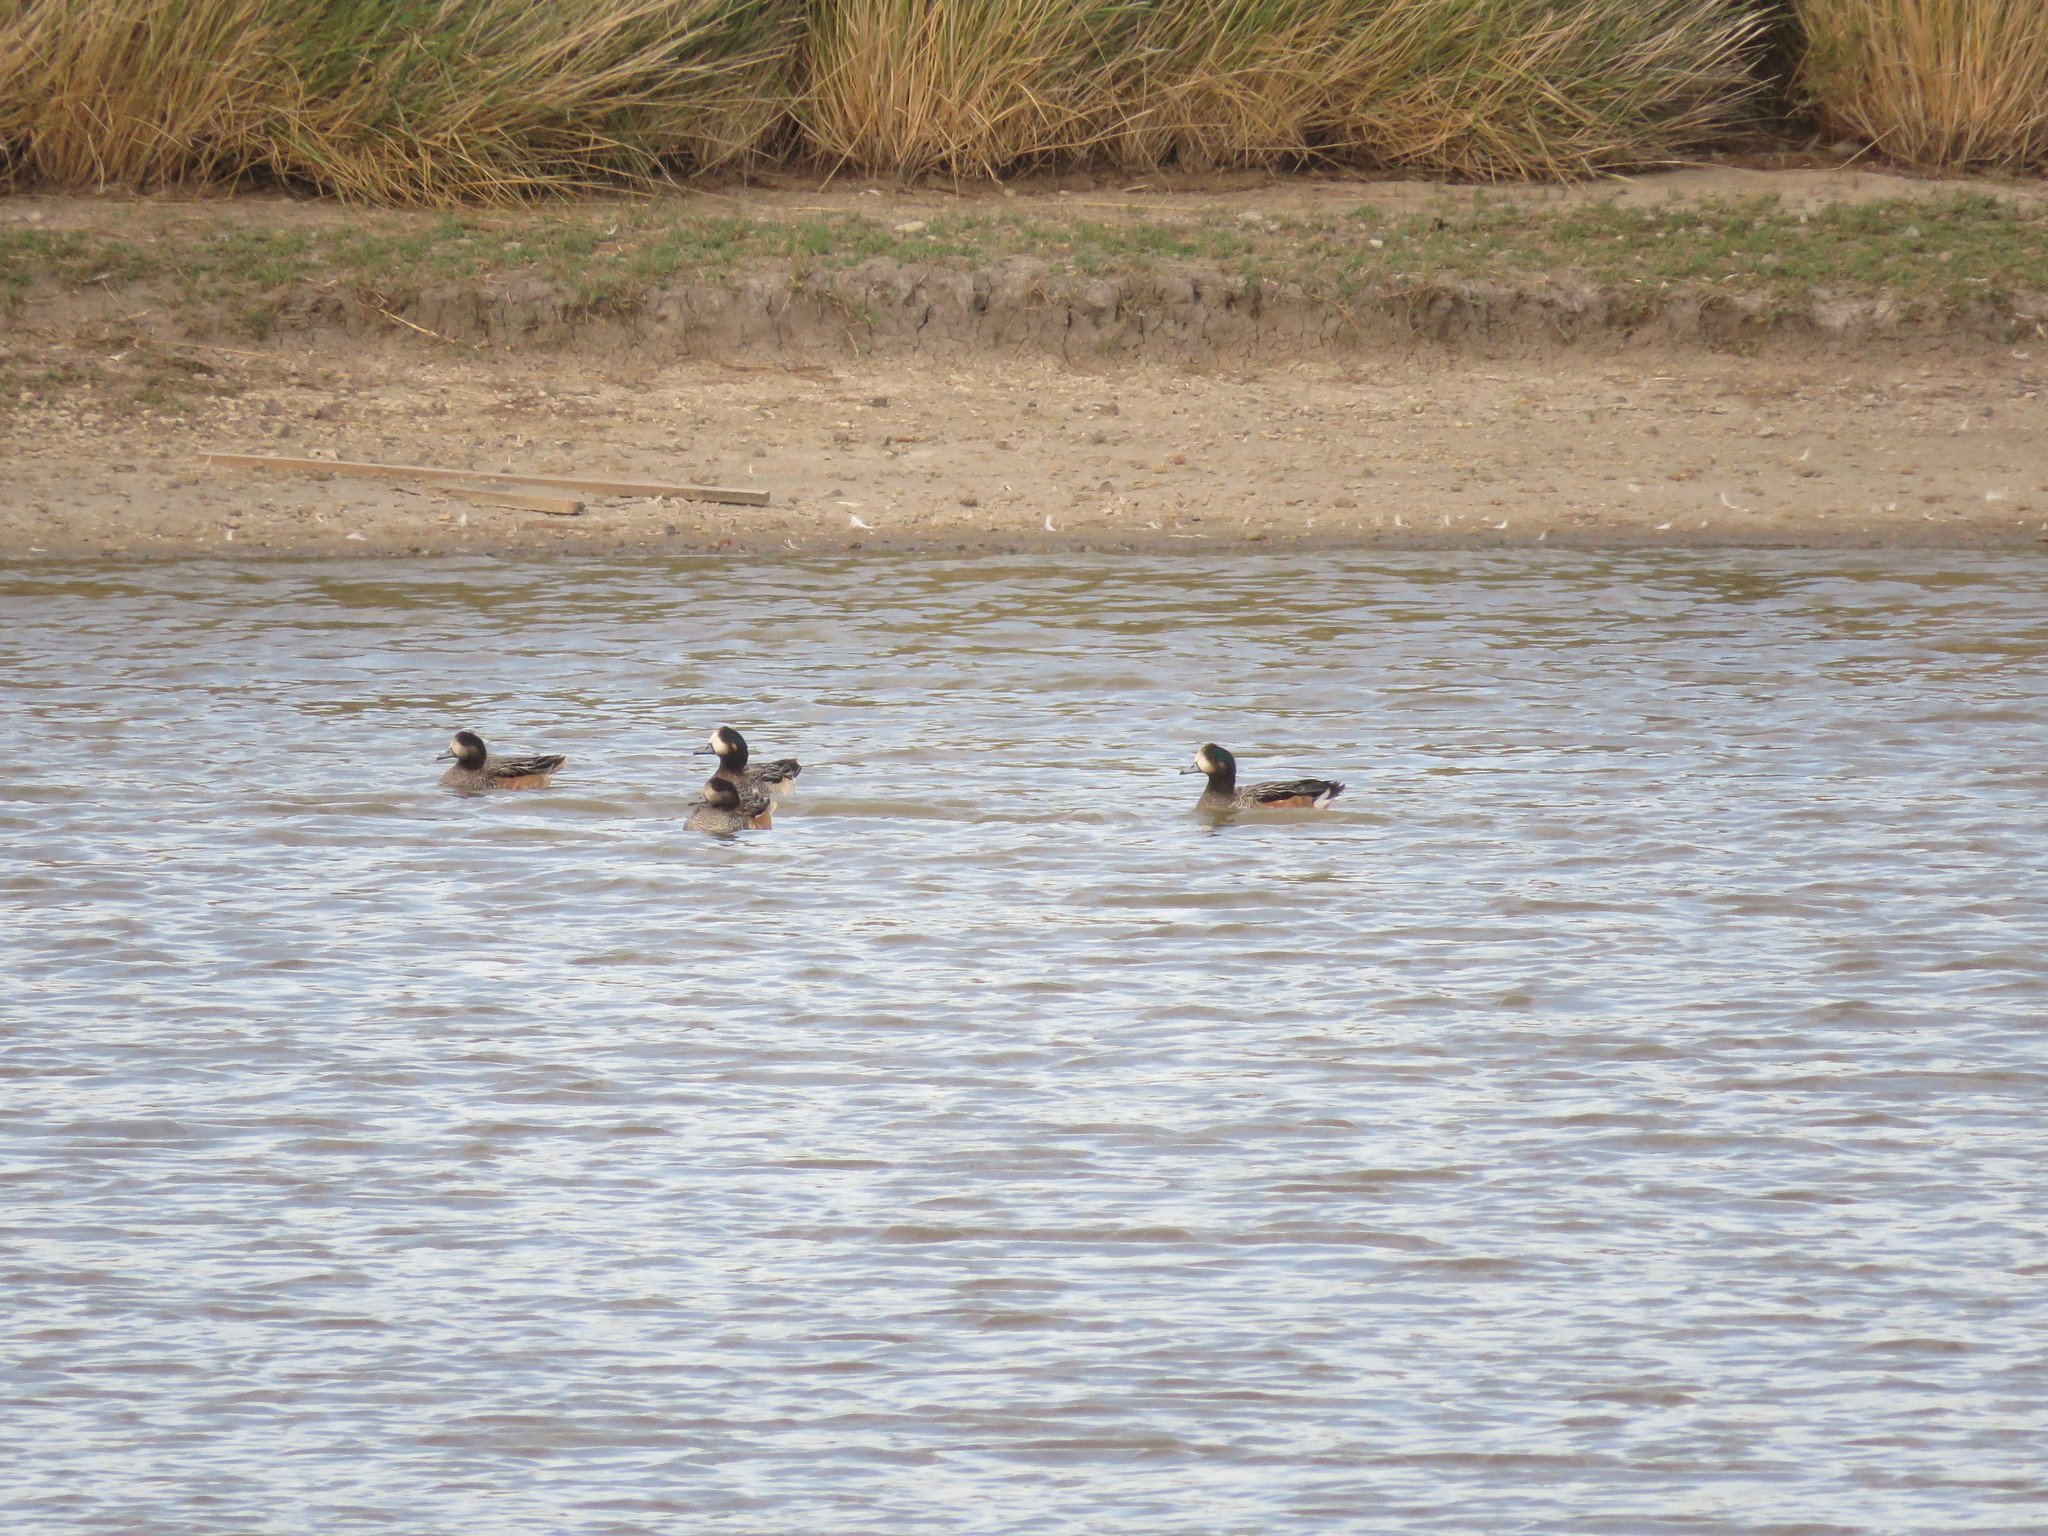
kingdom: Animalia
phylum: Chordata
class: Aves
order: Anseriformes
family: Anatidae
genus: Mareca
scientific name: Mareca sibilatrix
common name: Chiloe wigeon
